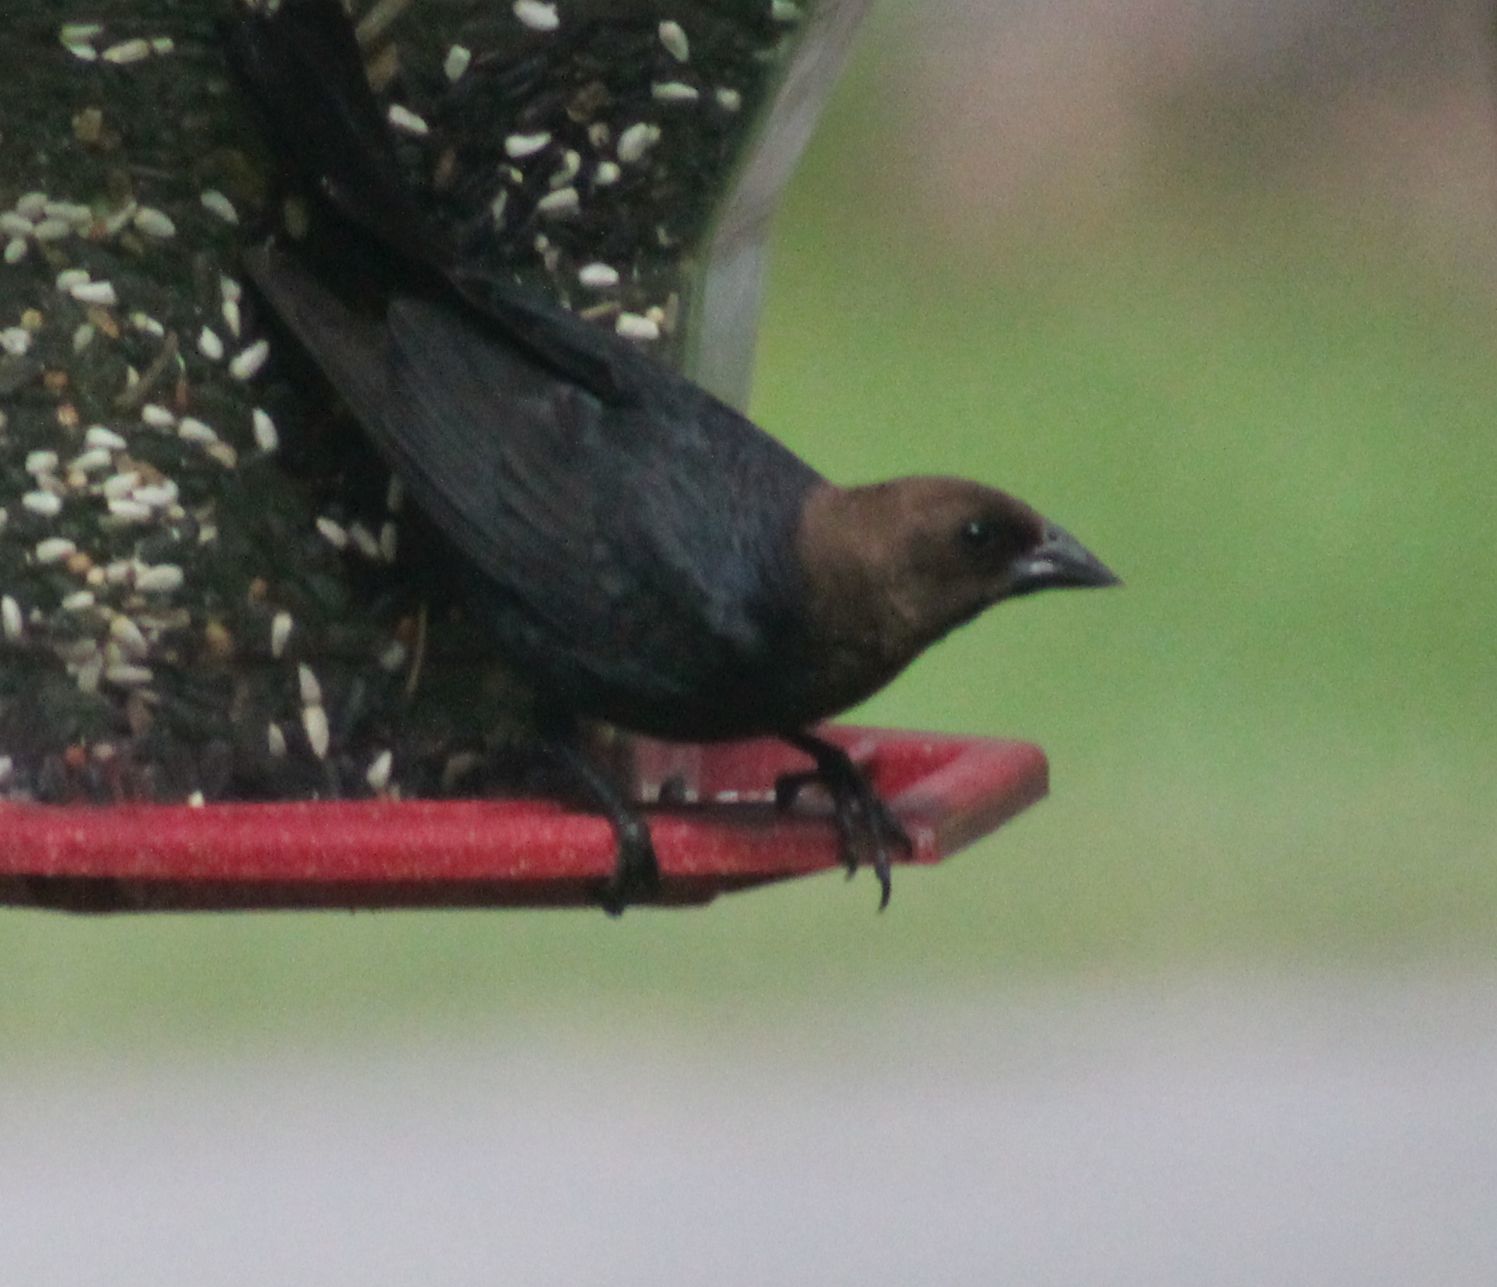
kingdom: Animalia
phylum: Chordata
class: Aves
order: Passeriformes
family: Icteridae
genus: Molothrus
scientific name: Molothrus ater
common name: Brown-headed cowbird
